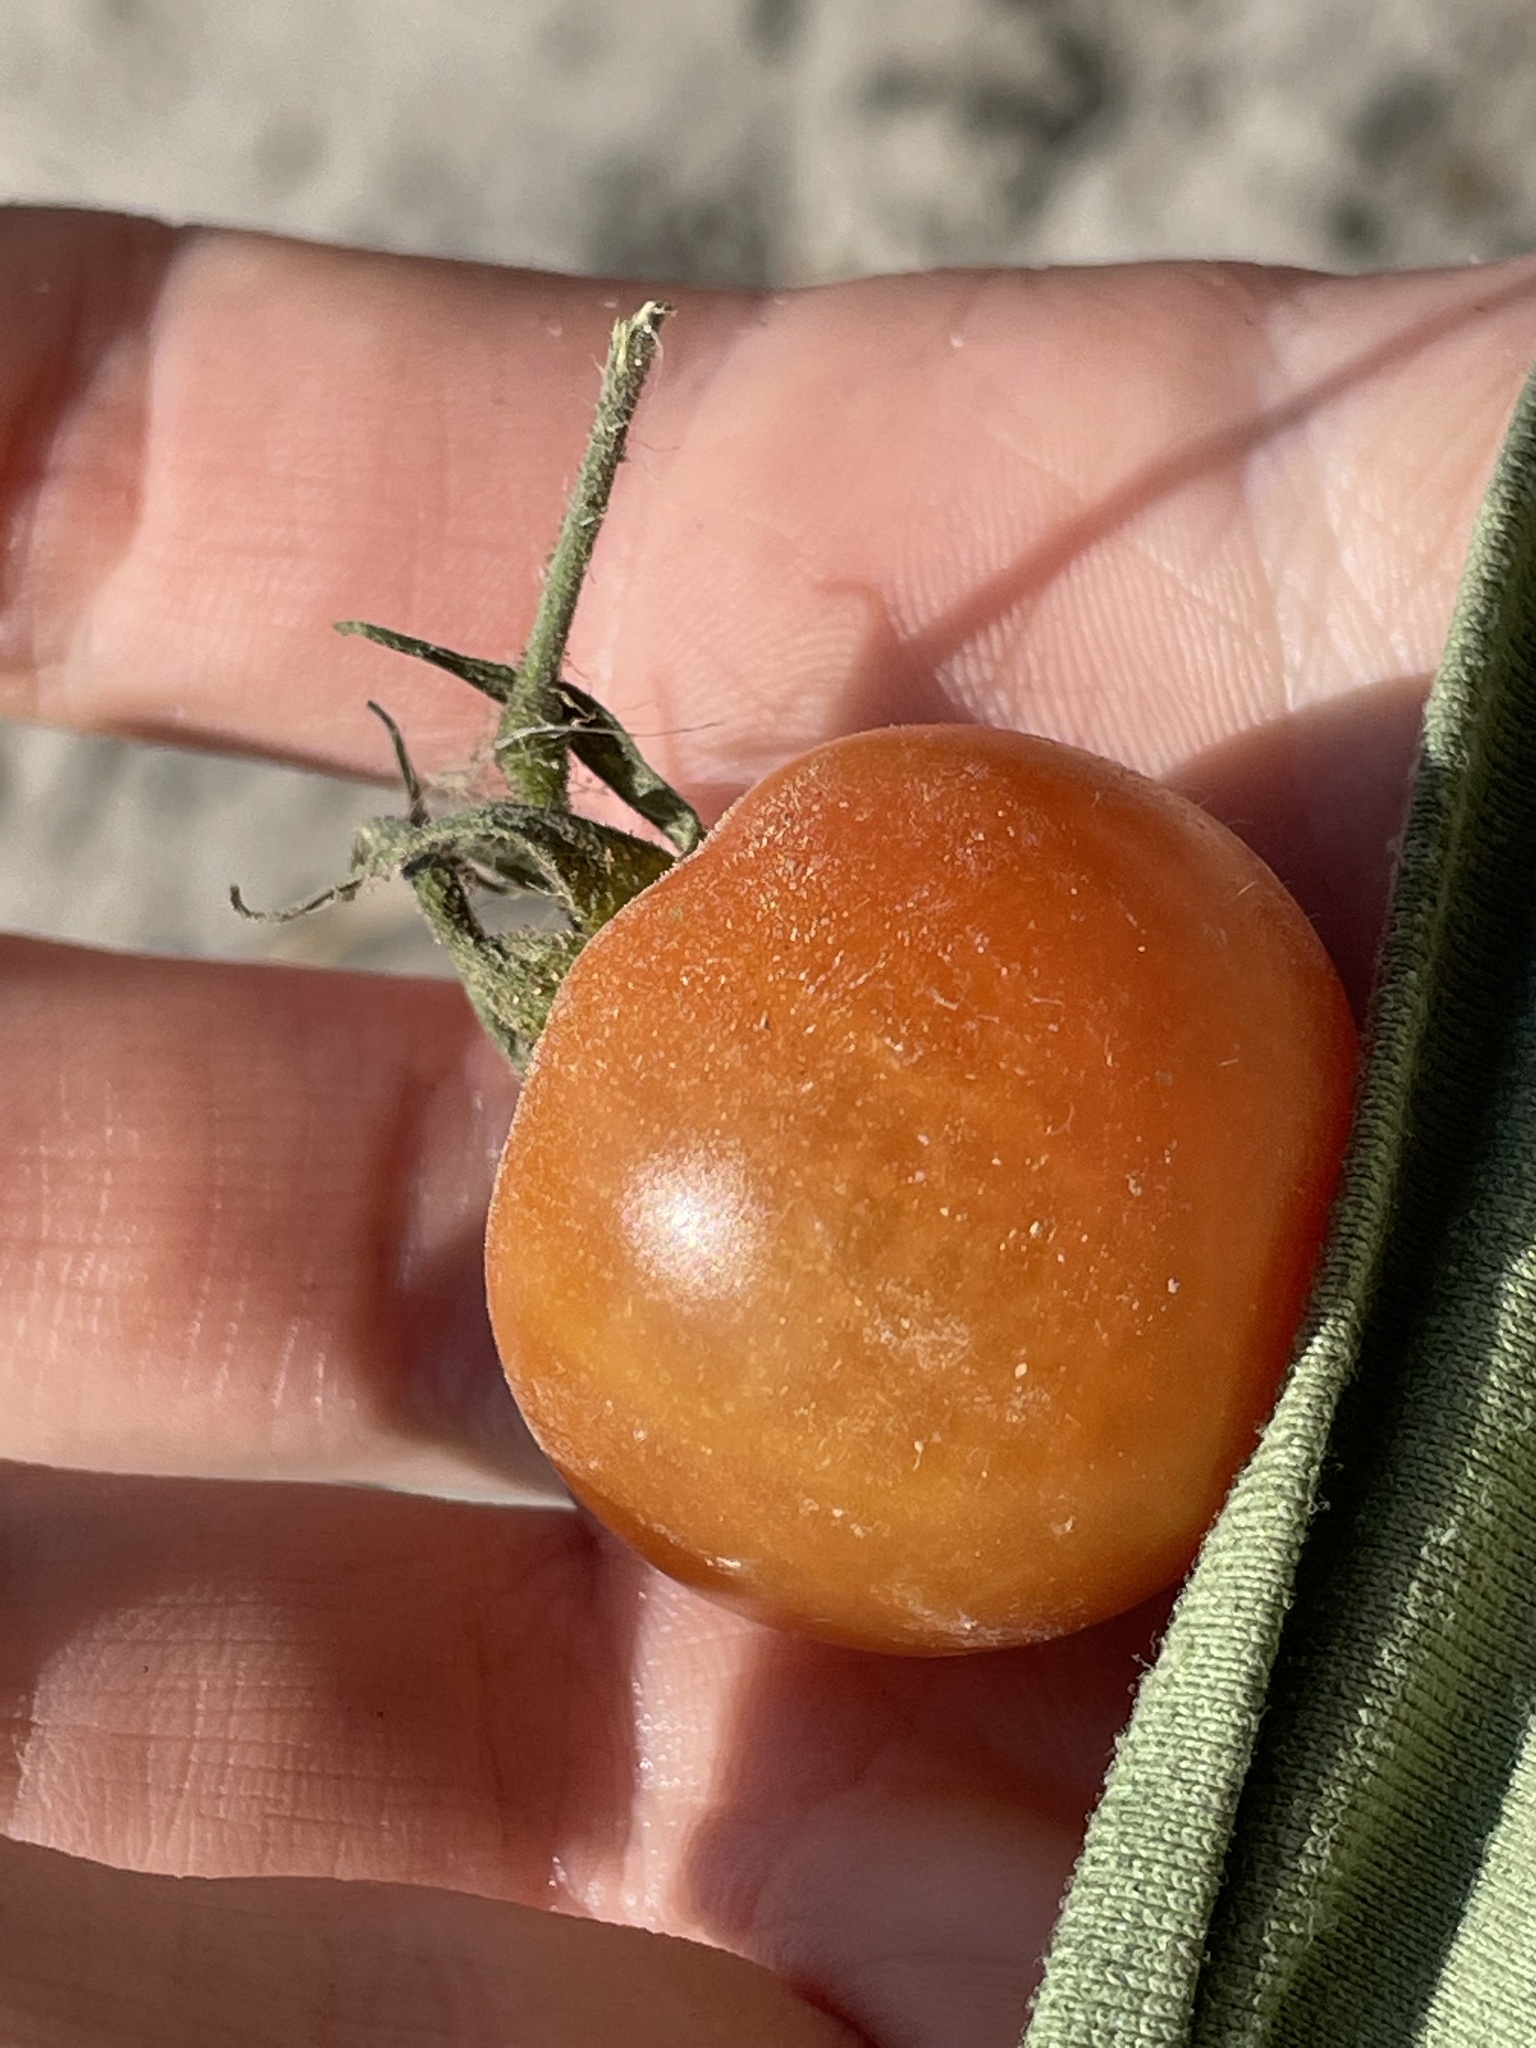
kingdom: Plantae
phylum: Tracheophyta
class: Magnoliopsida
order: Solanales
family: Solanaceae
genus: Solanum
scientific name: Solanum lycopersicum
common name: Garden tomato
